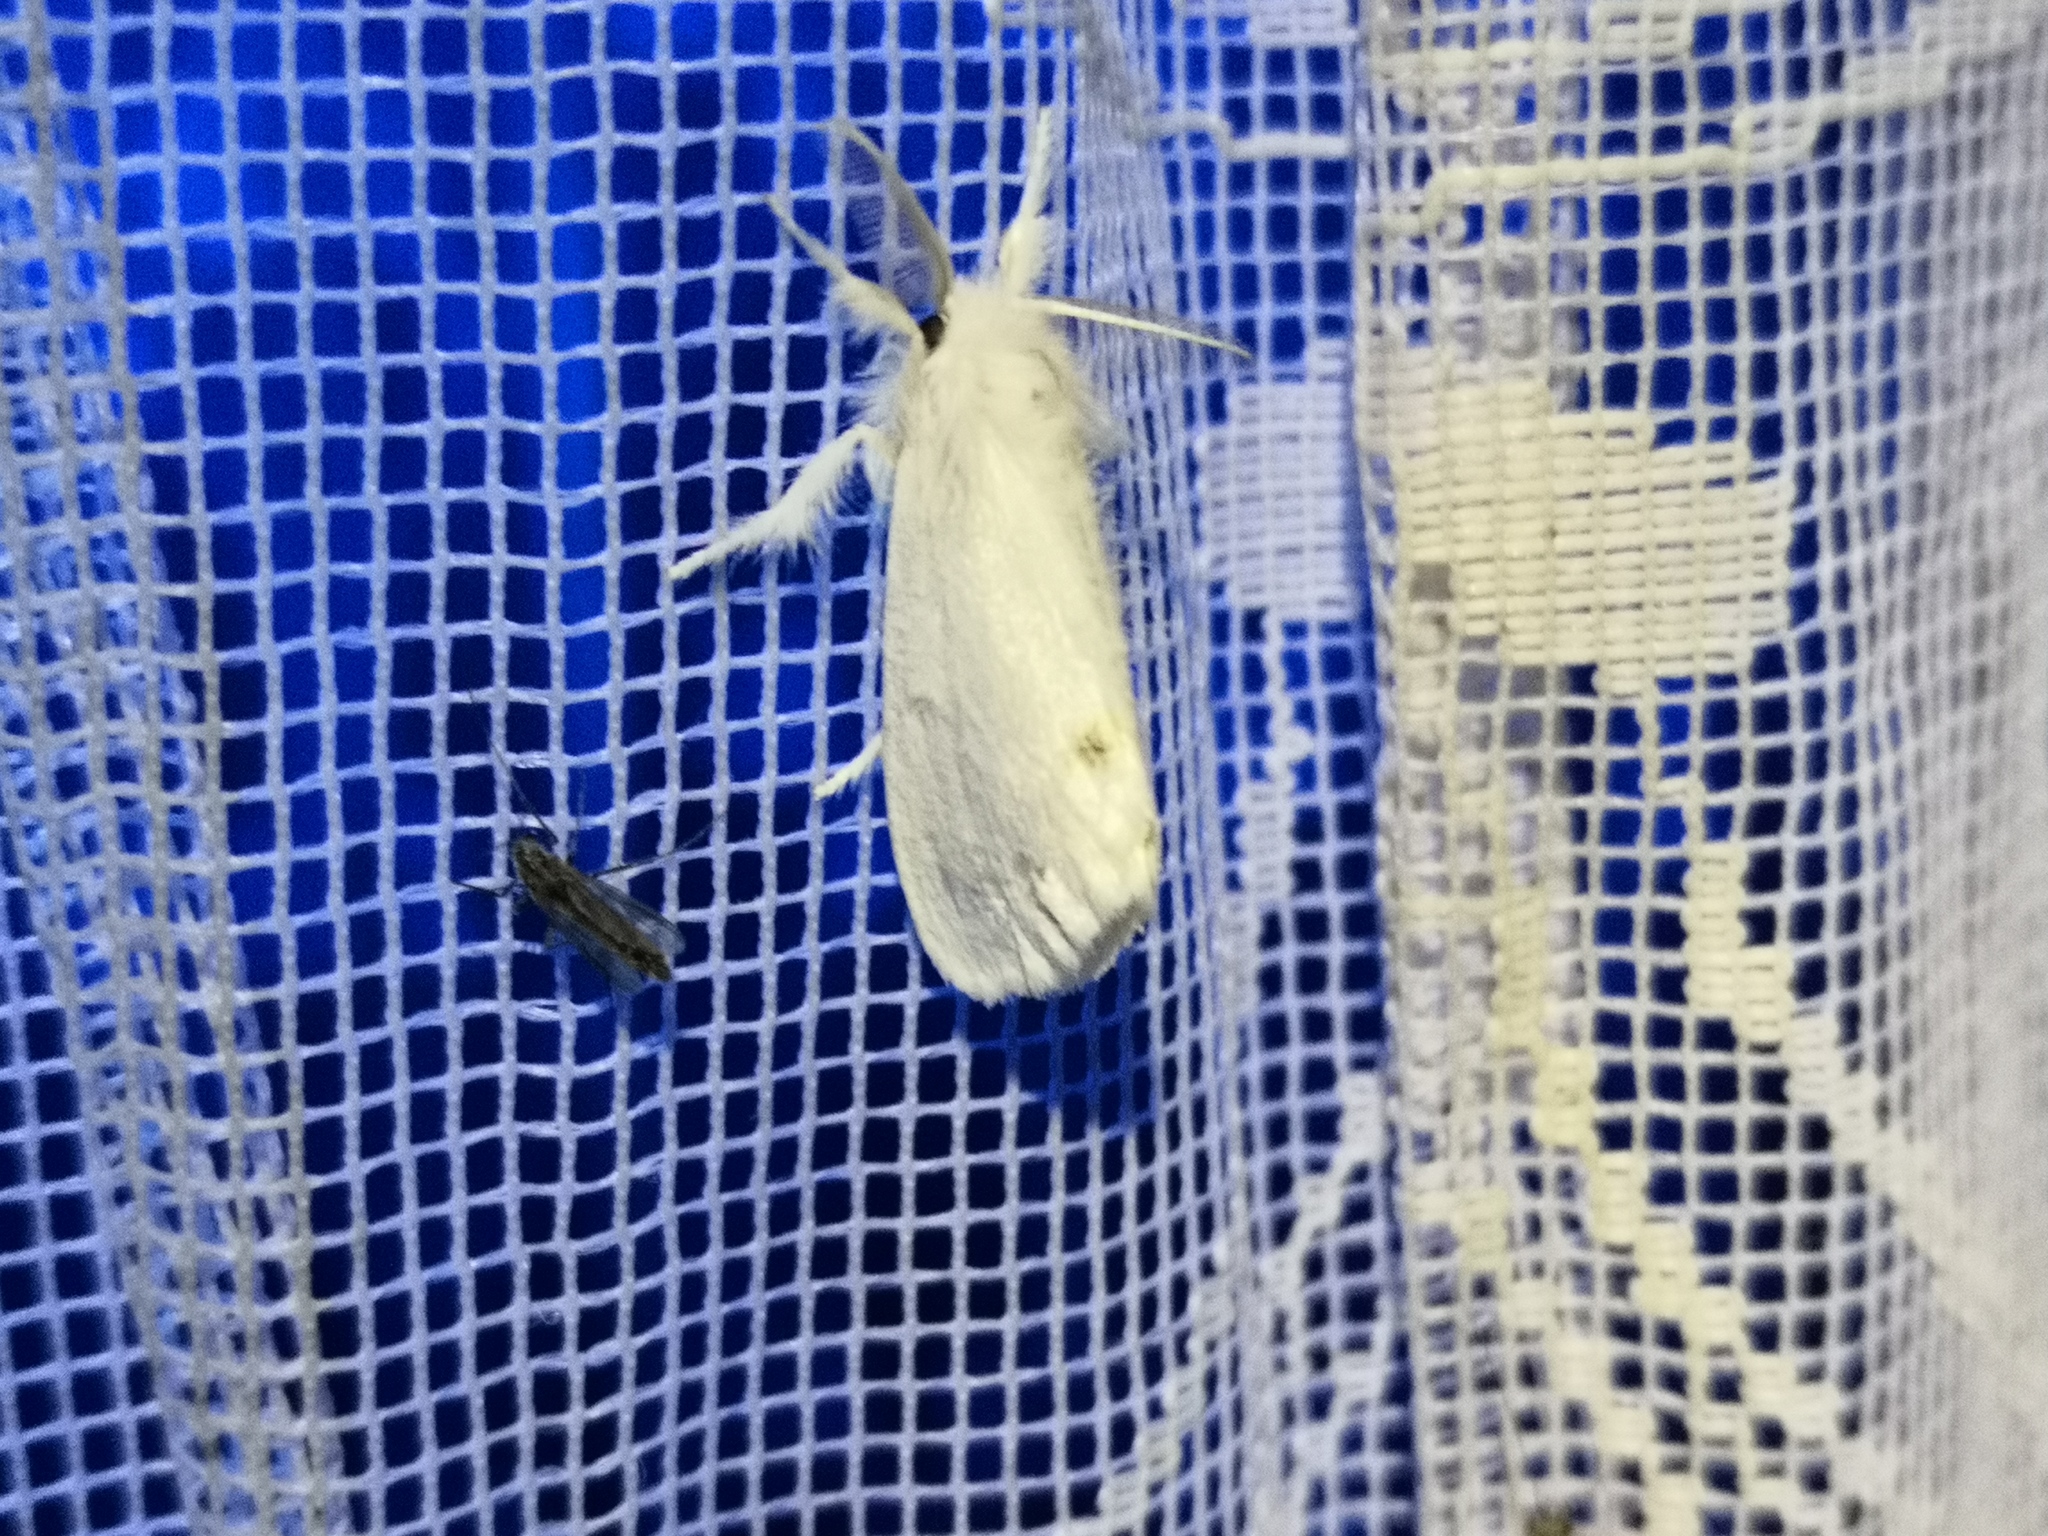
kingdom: Animalia
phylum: Arthropoda
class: Insecta
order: Lepidoptera
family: Erebidae
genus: Sphrageidus
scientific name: Sphrageidus similis
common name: Yellow-tail
